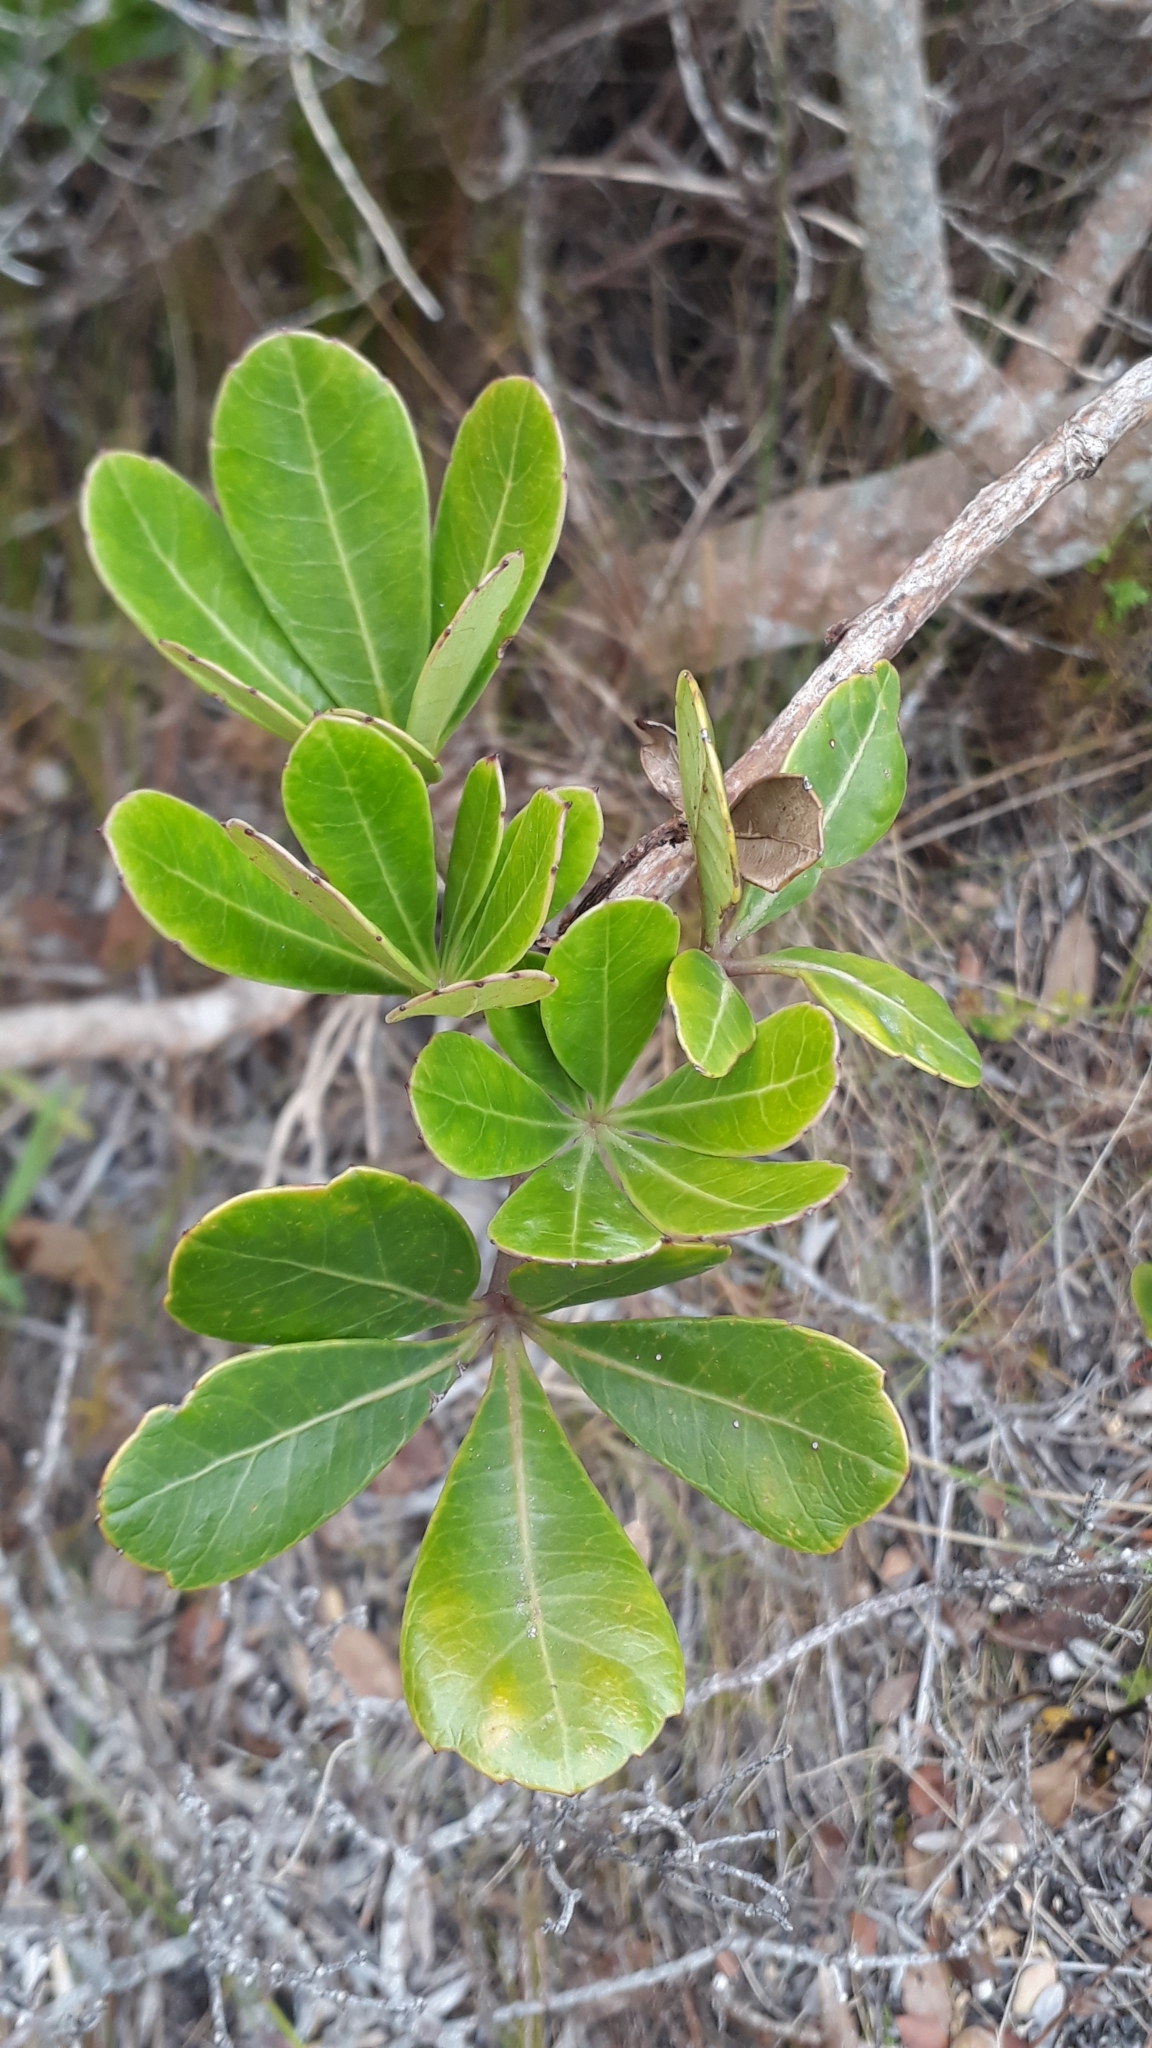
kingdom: Plantae
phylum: Tracheophyta
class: Magnoliopsida
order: Apiales
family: Araliaceae
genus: Cussonia
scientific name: Cussonia thyrsiflora
